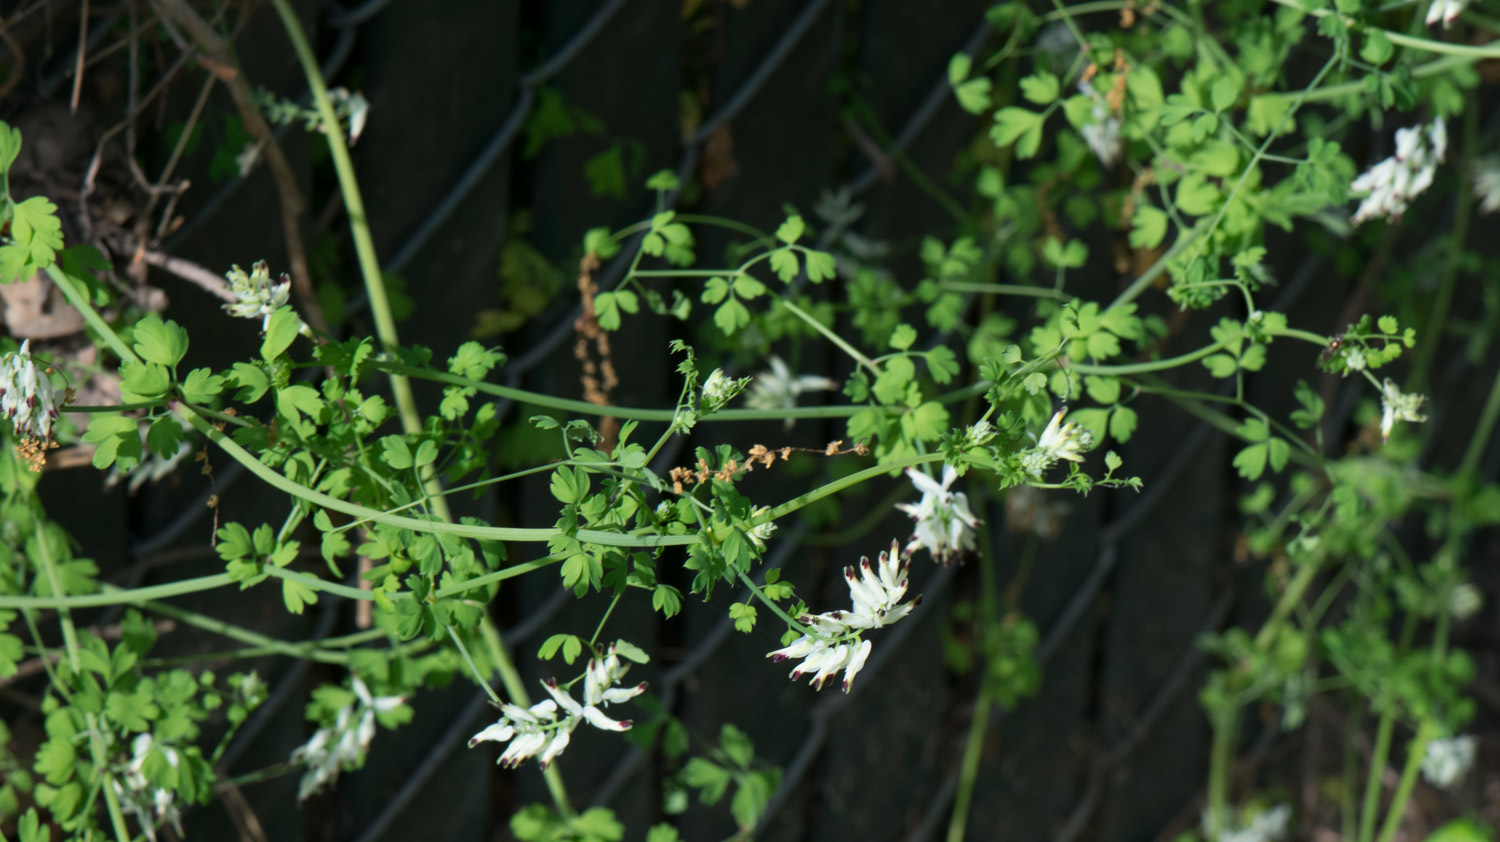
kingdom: Plantae
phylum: Tracheophyta
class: Magnoliopsida
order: Ranunculales
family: Papaveraceae
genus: Fumaria
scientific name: Fumaria capreolata
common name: White ramping-fumitory
